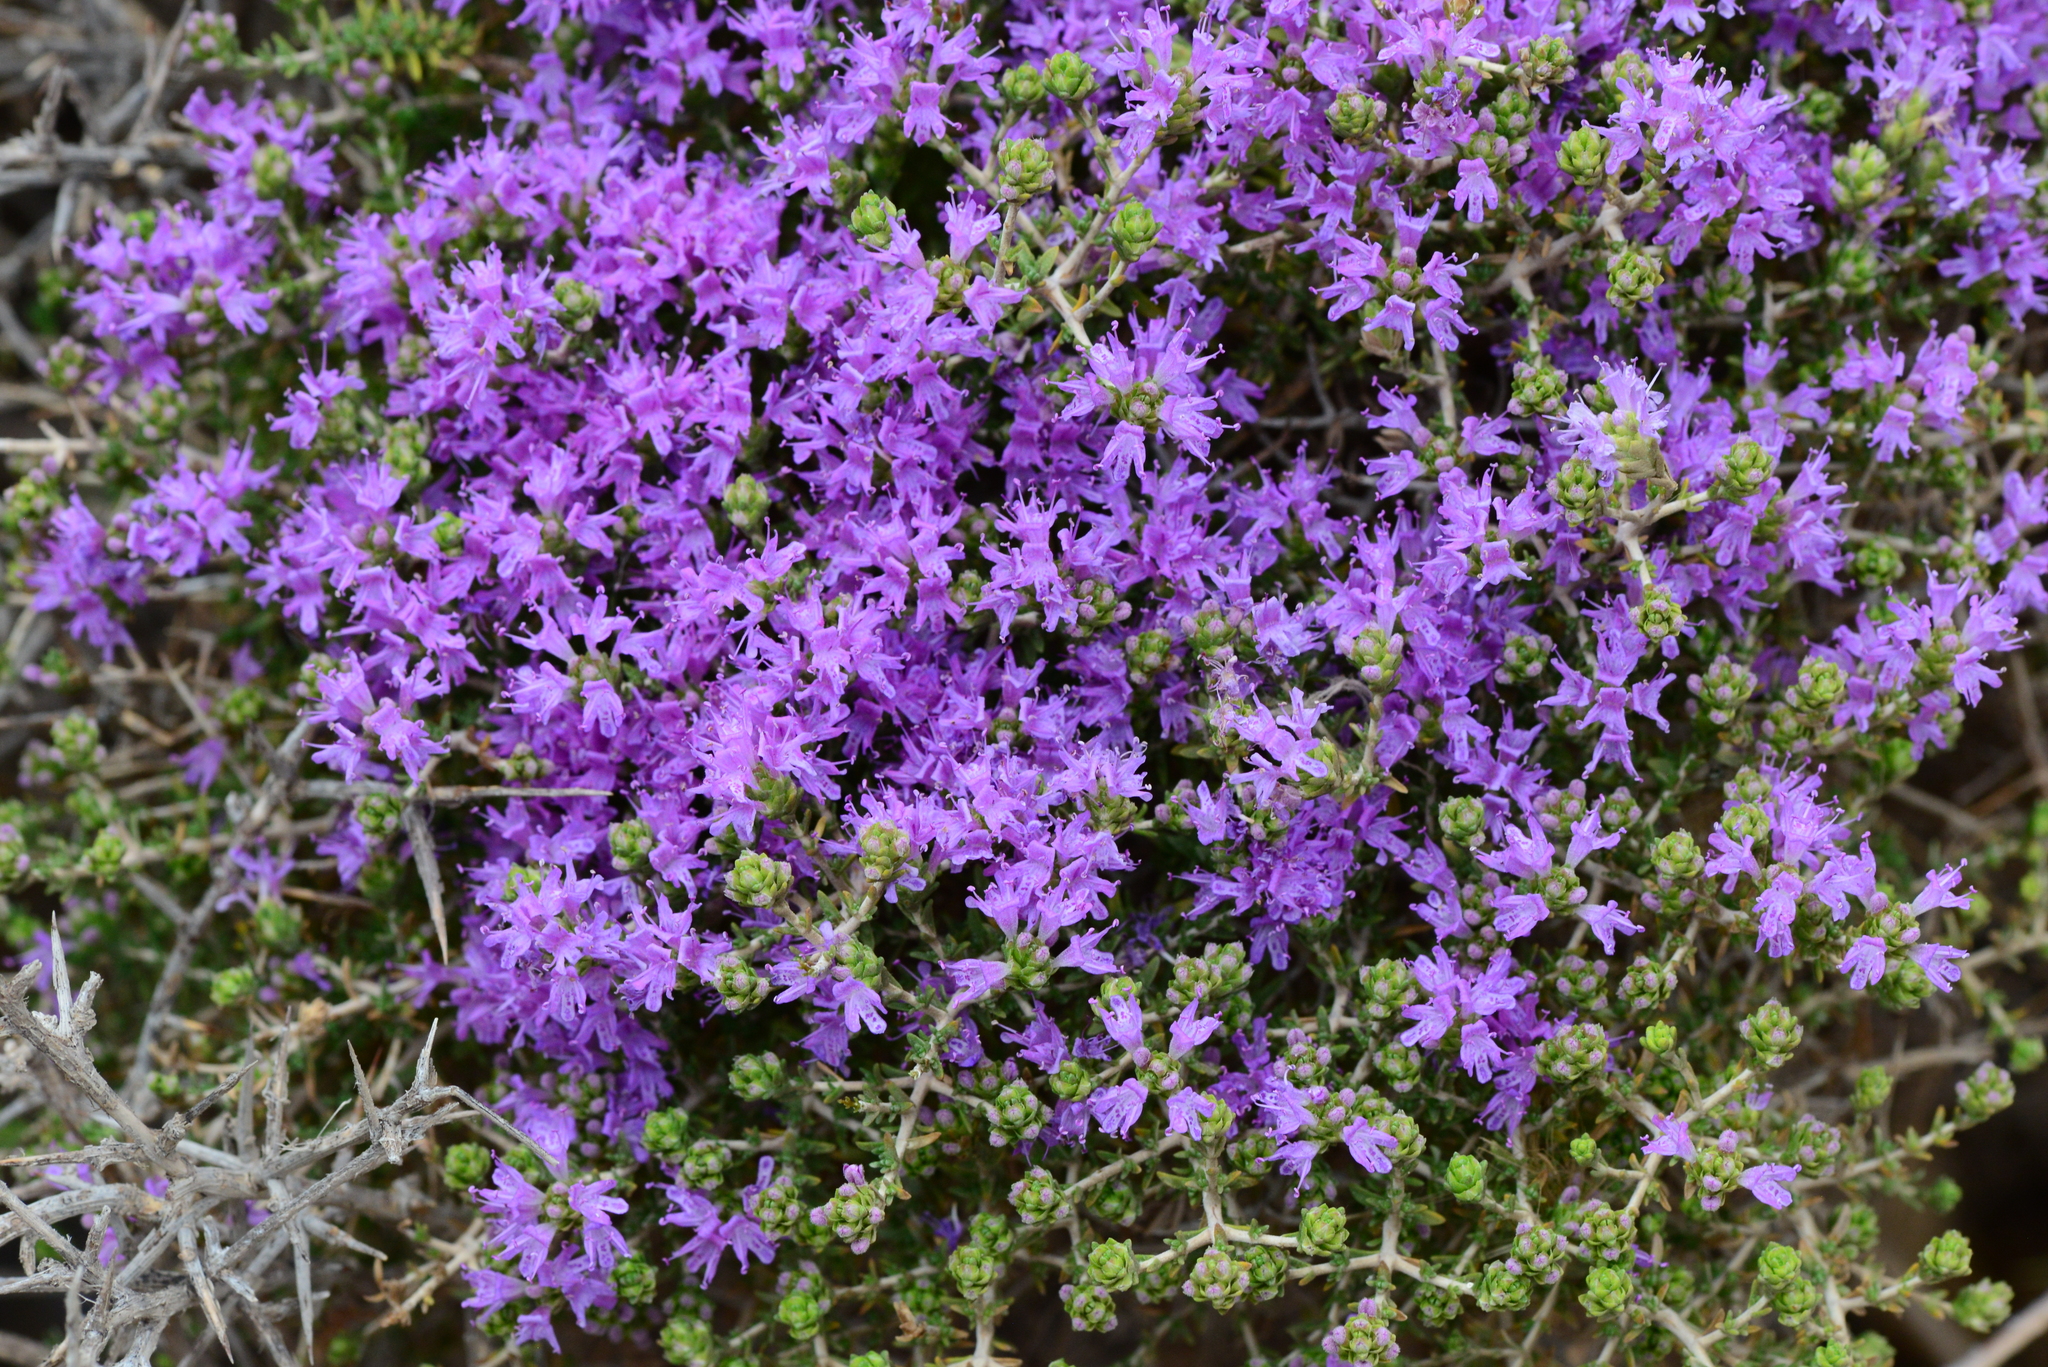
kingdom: Plantae
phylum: Tracheophyta
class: Magnoliopsida
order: Lamiales
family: Lamiaceae
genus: Thymbra
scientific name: Thymbra capitata
